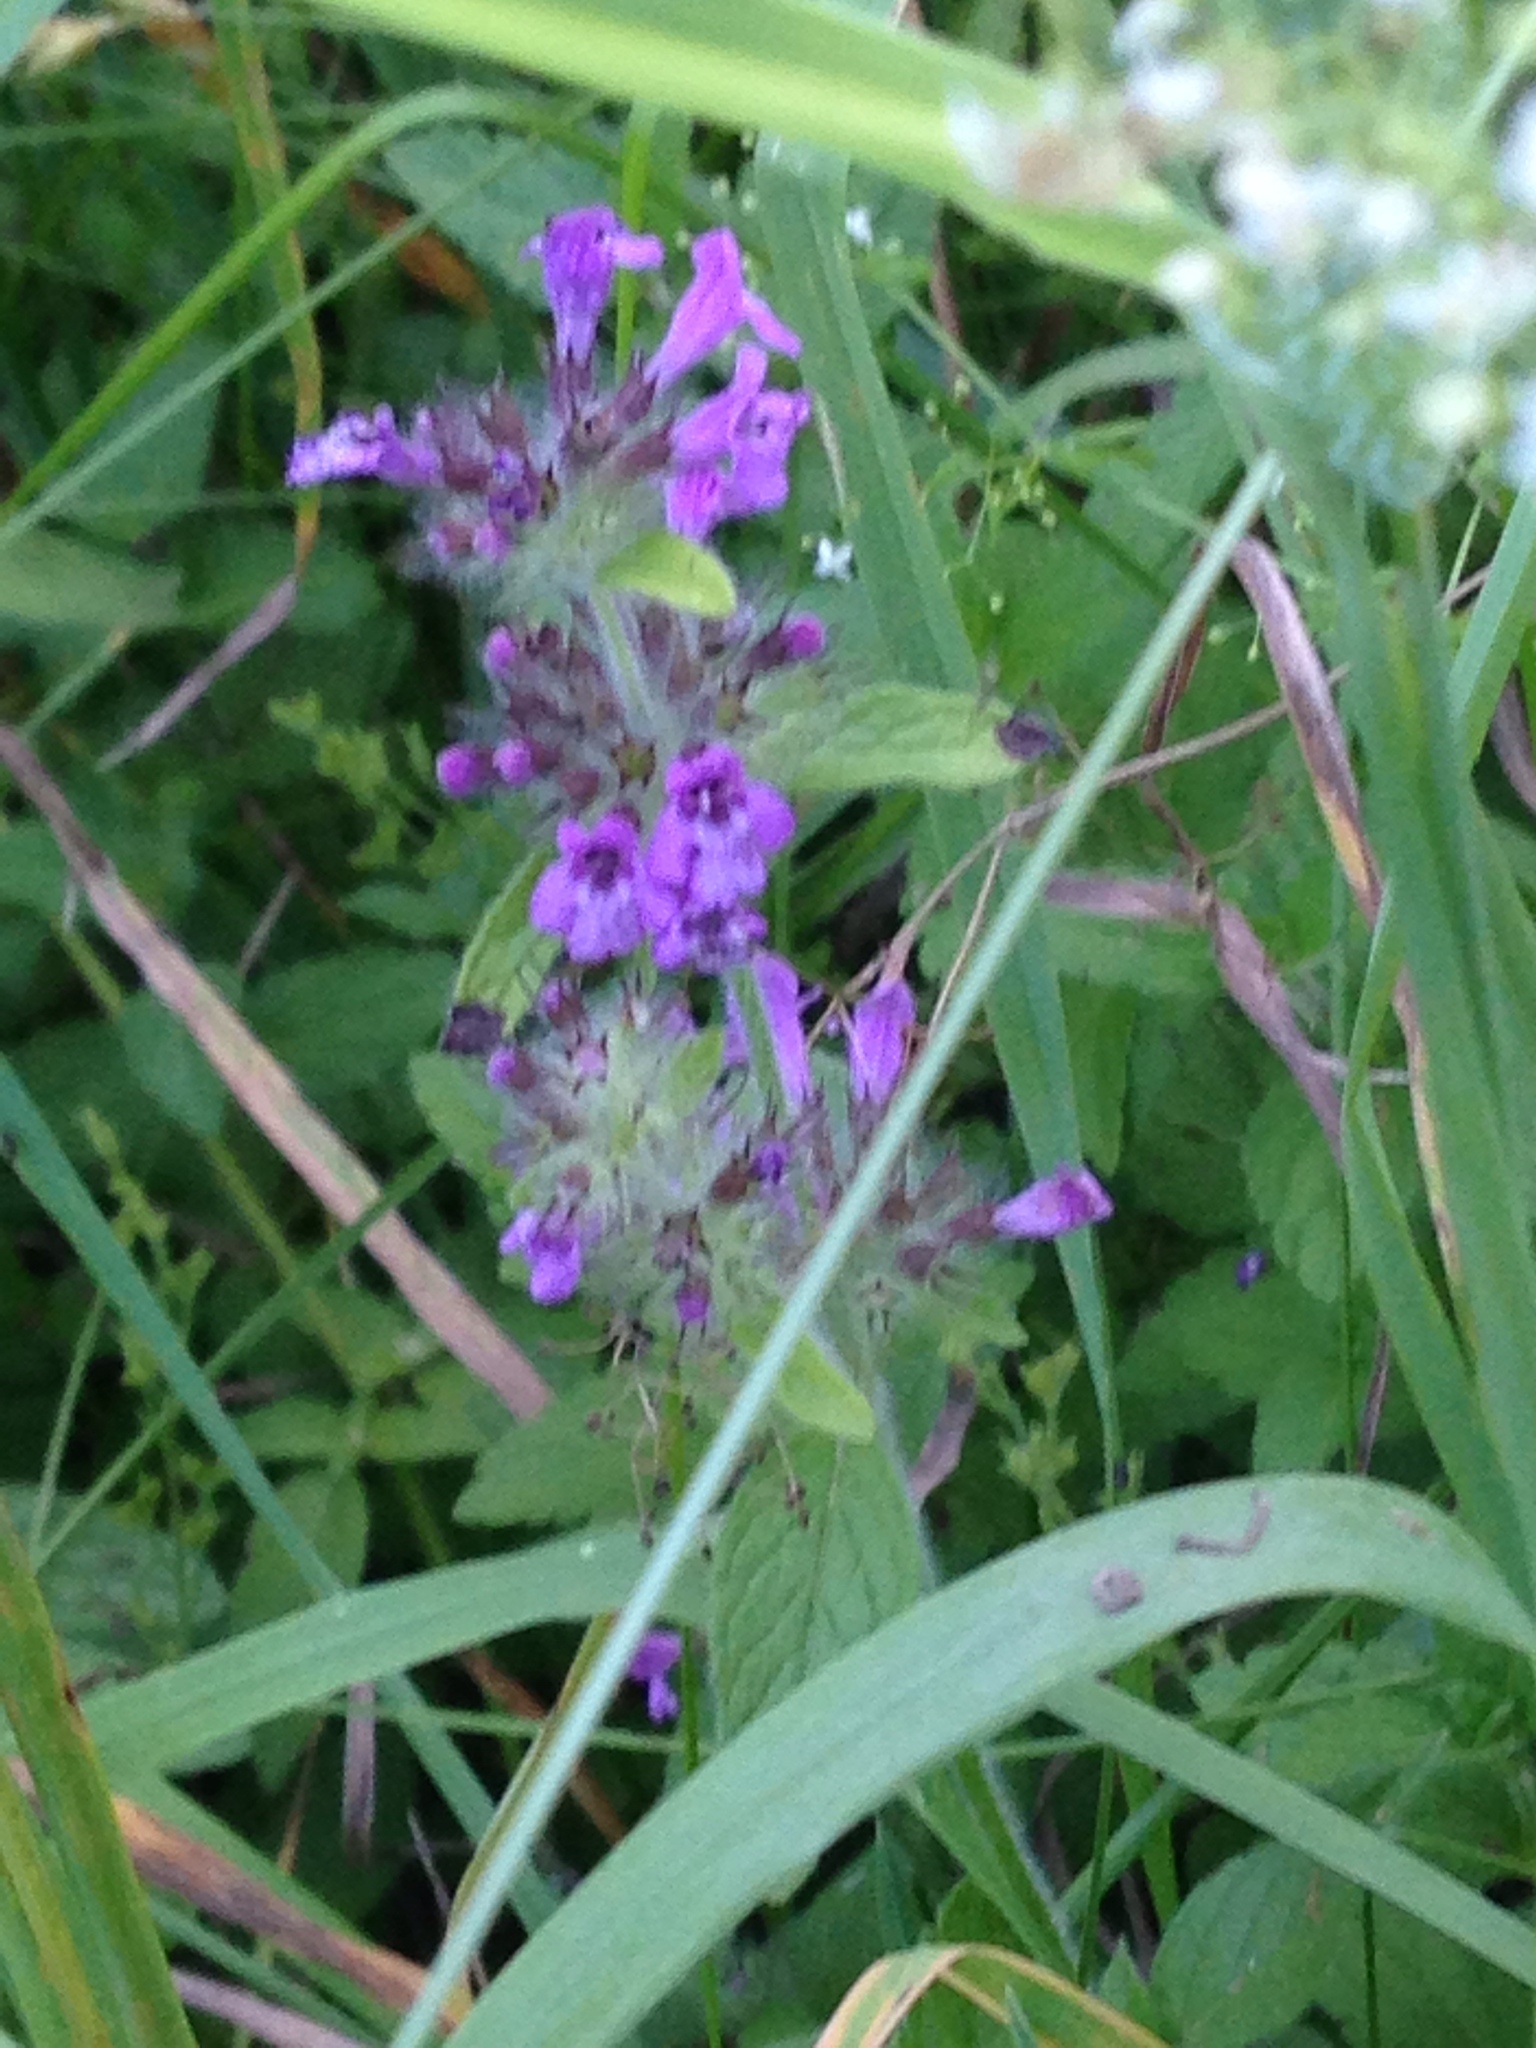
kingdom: Plantae
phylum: Tracheophyta
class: Magnoliopsida
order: Lamiales
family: Lamiaceae
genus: Clinopodium
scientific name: Clinopodium vulgare
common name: Wild basil
